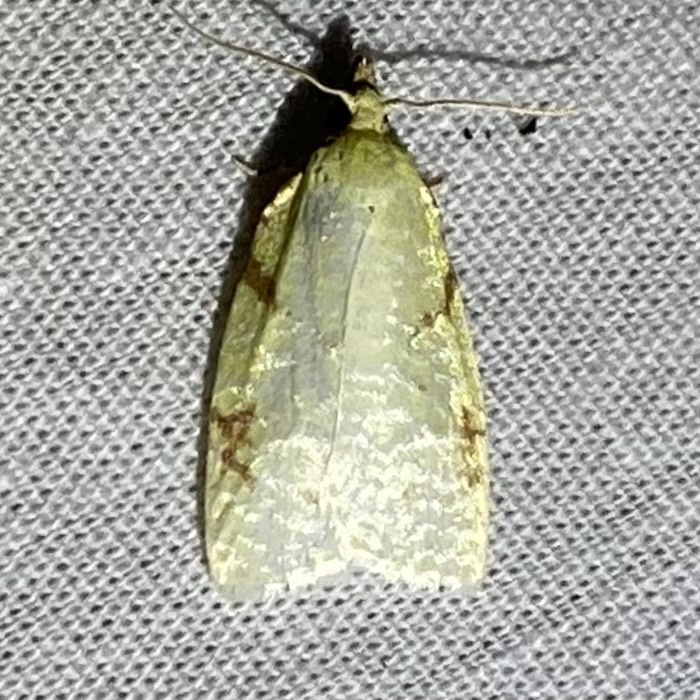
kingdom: Animalia
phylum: Arthropoda
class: Insecta
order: Lepidoptera
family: Tortricidae
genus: Cenopis
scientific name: Cenopis pettitana
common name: Maple-basswood leafroller moth
